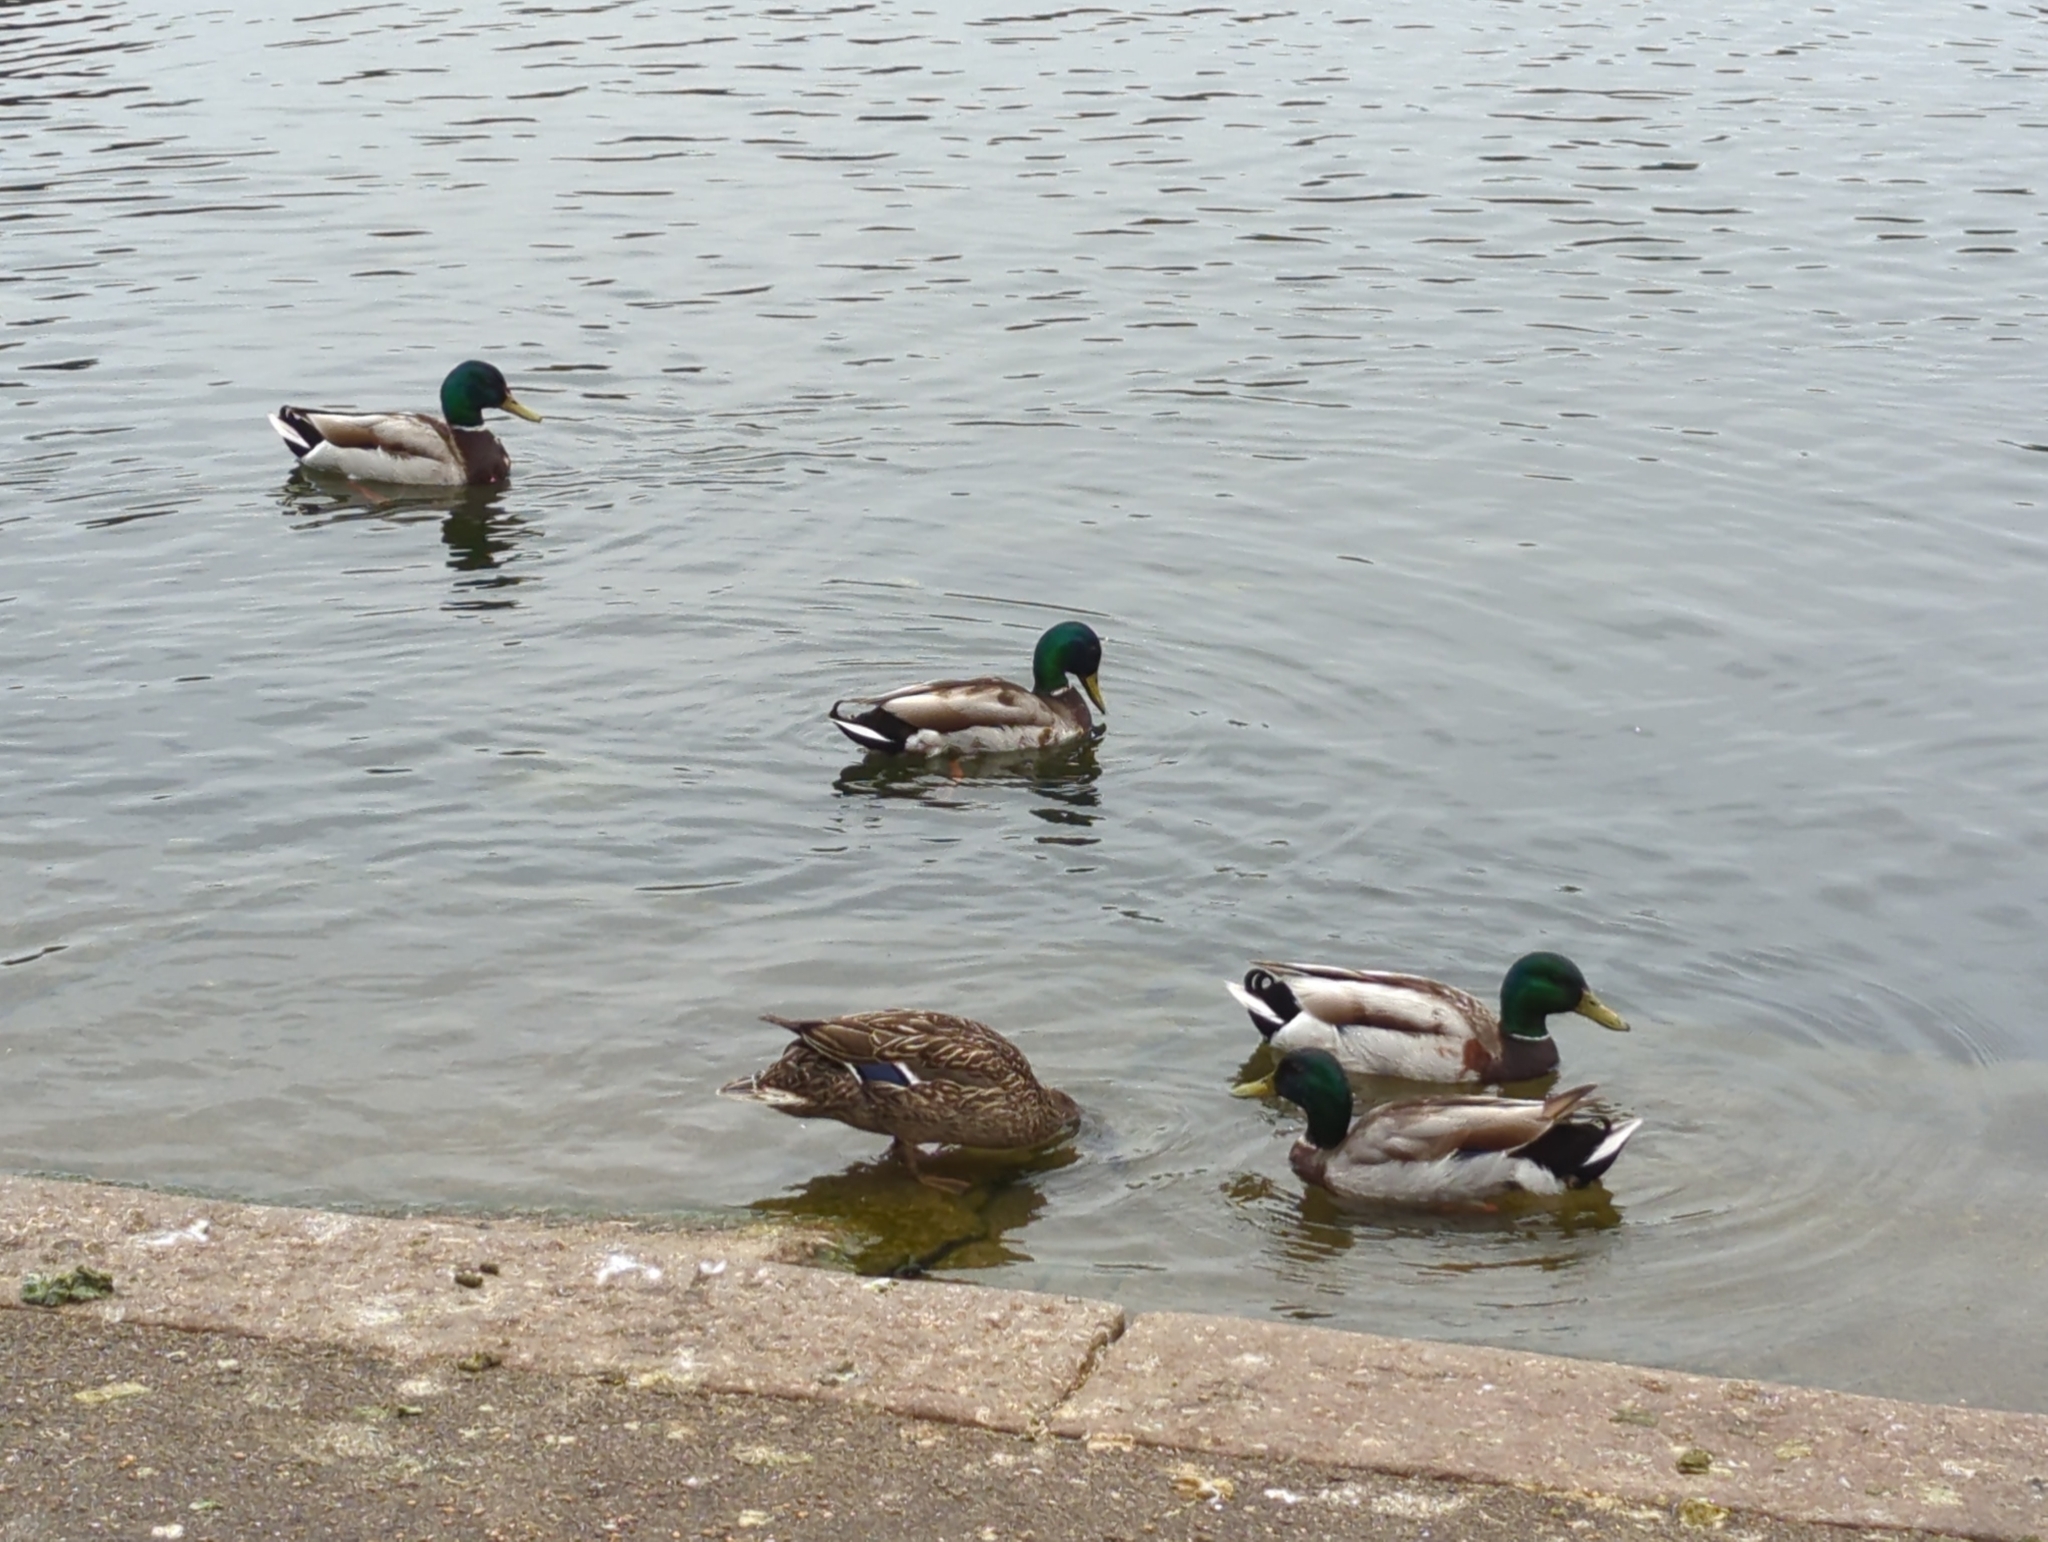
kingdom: Animalia
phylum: Chordata
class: Aves
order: Anseriformes
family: Anatidae
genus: Anas
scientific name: Anas platyrhynchos
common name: Mallard
